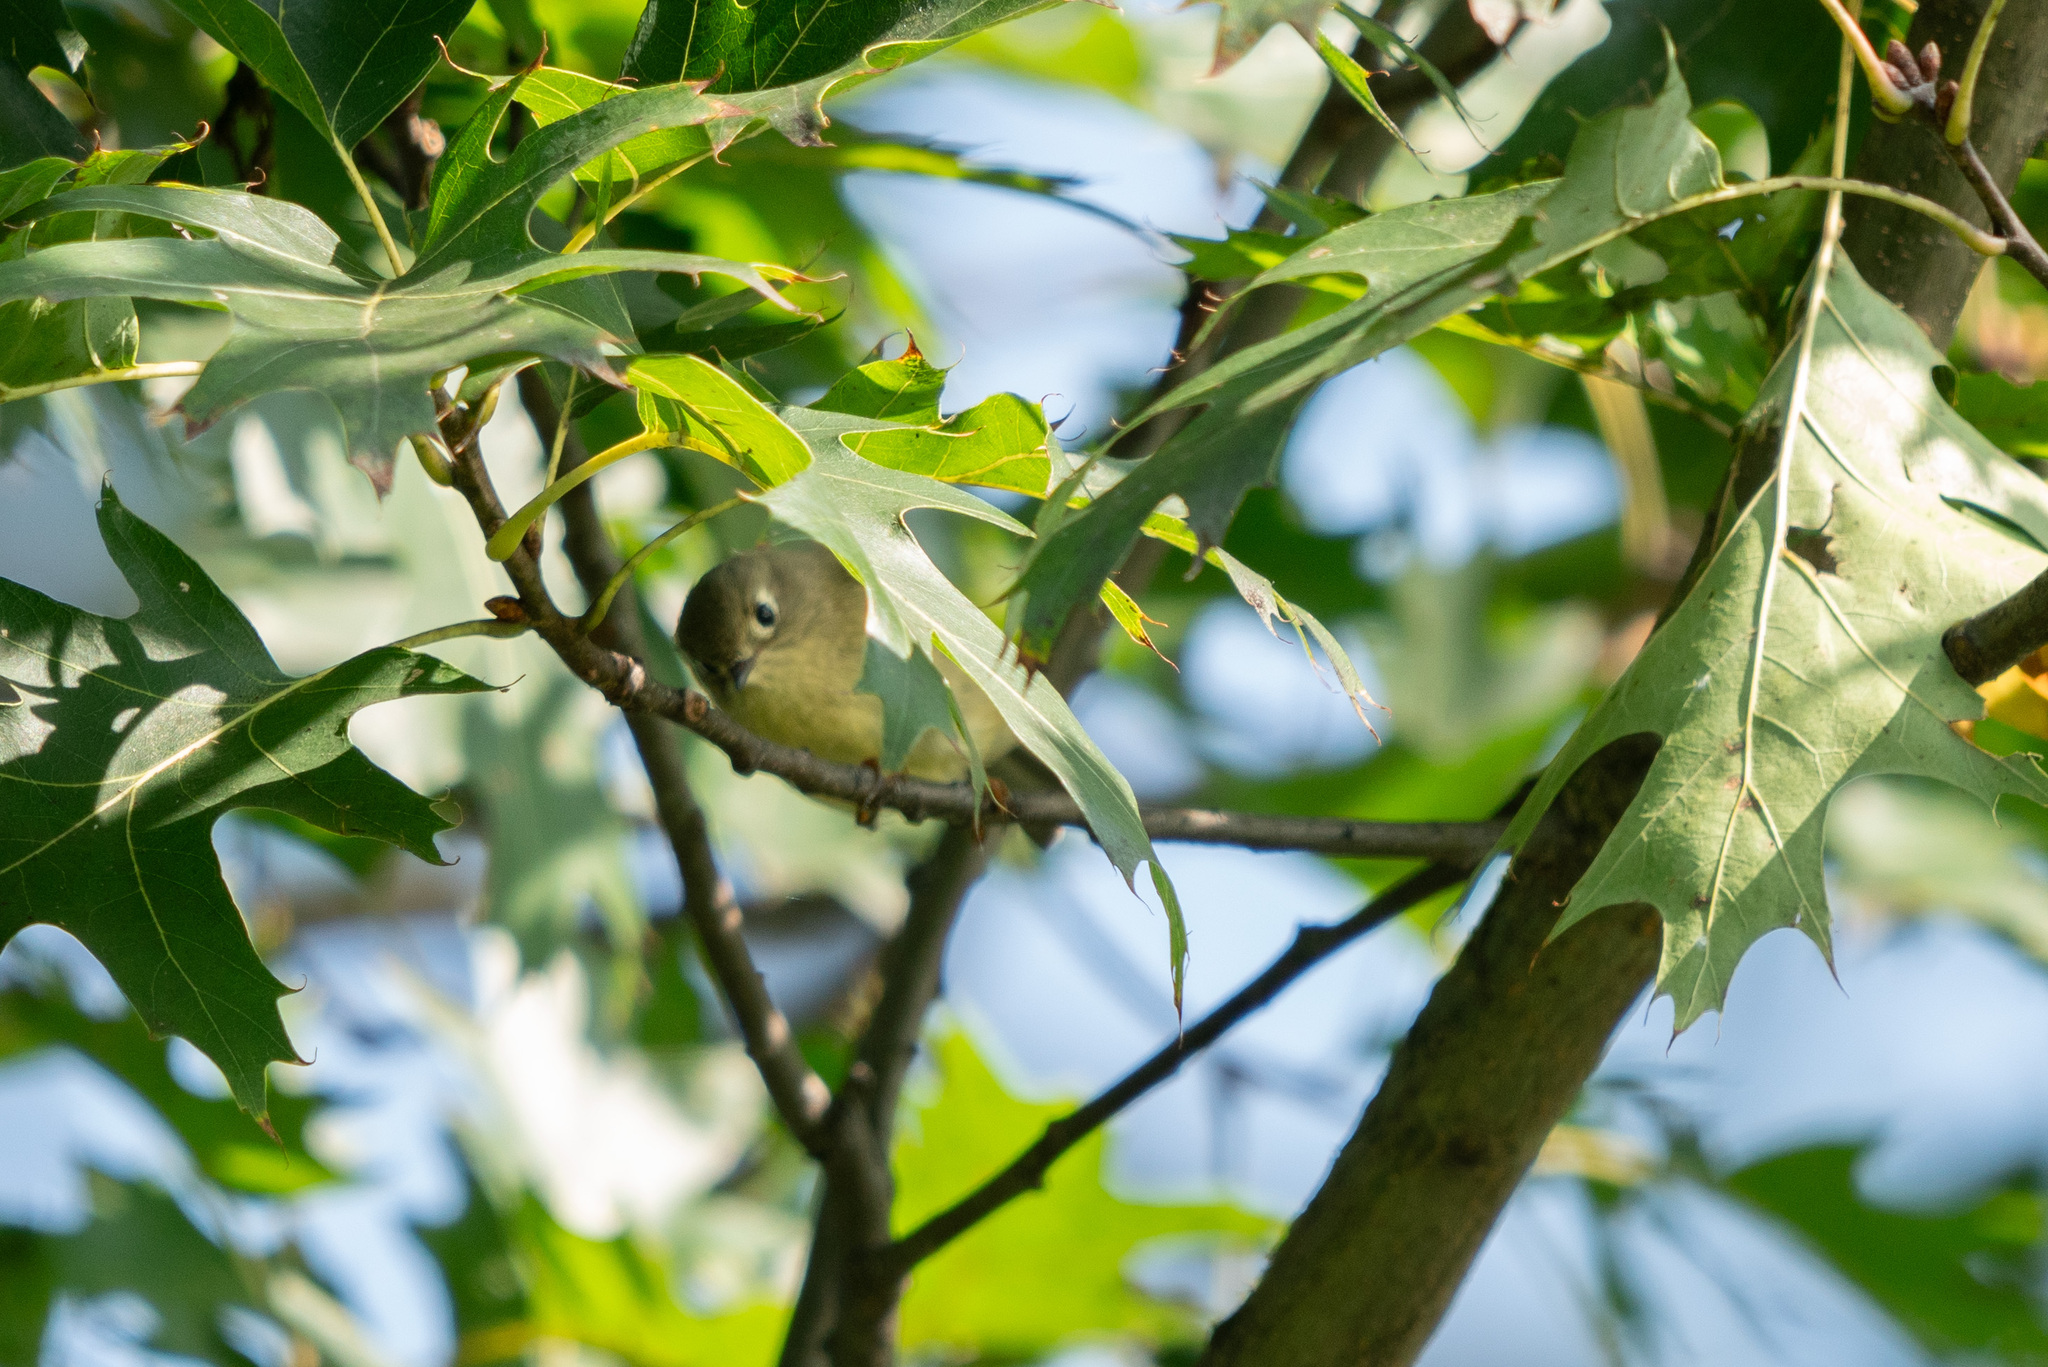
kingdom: Animalia
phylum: Chordata
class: Aves
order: Passeriformes
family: Regulidae
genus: Regulus
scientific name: Regulus calendula
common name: Ruby-crowned kinglet
